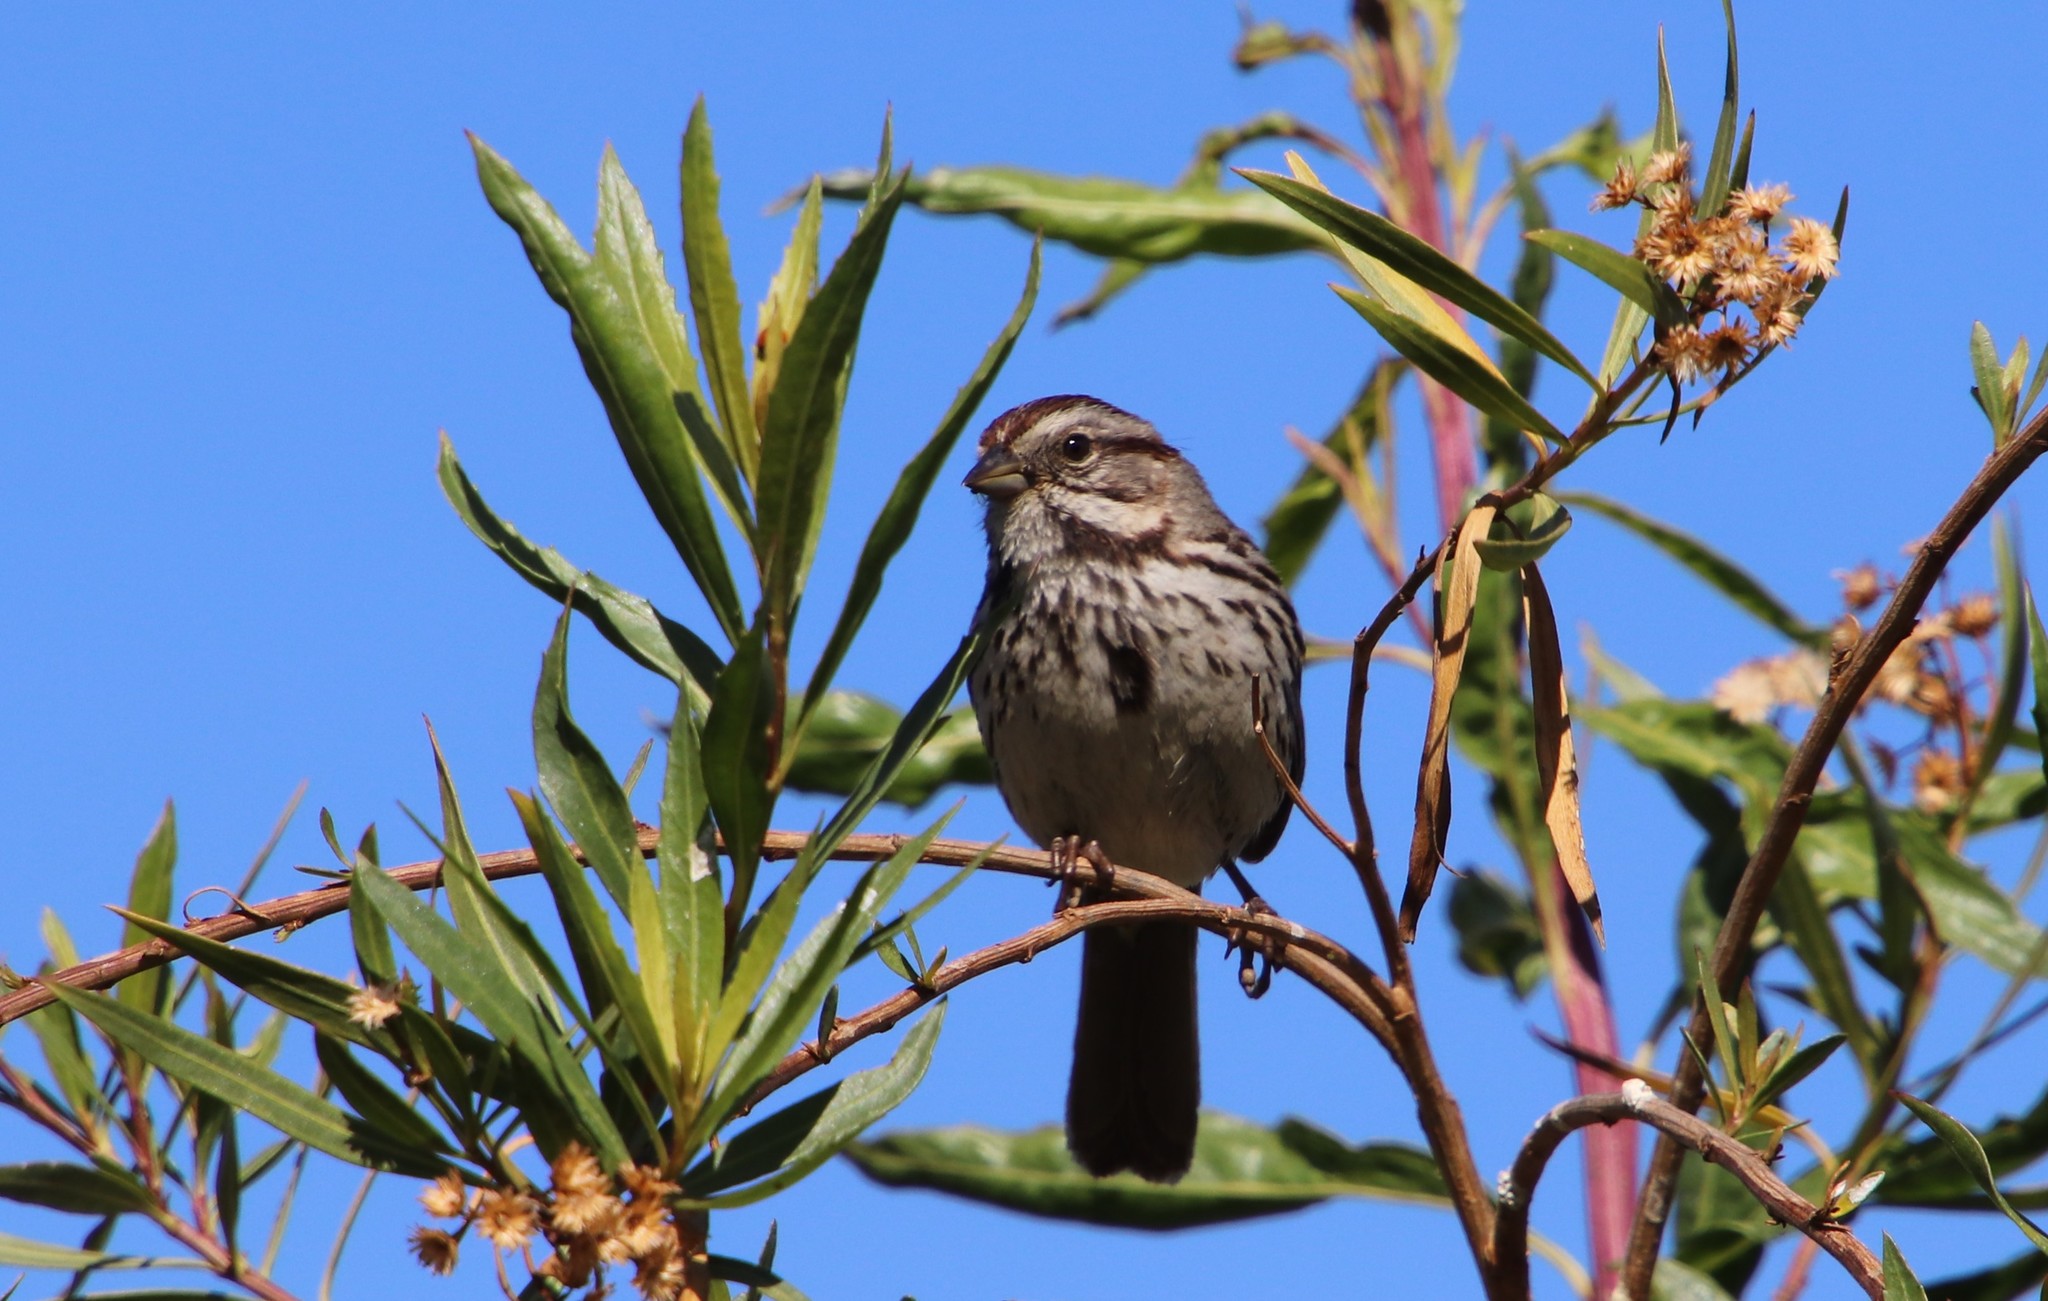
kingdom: Animalia
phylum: Chordata
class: Aves
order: Passeriformes
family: Passerellidae
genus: Melospiza
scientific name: Melospiza melodia
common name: Song sparrow
